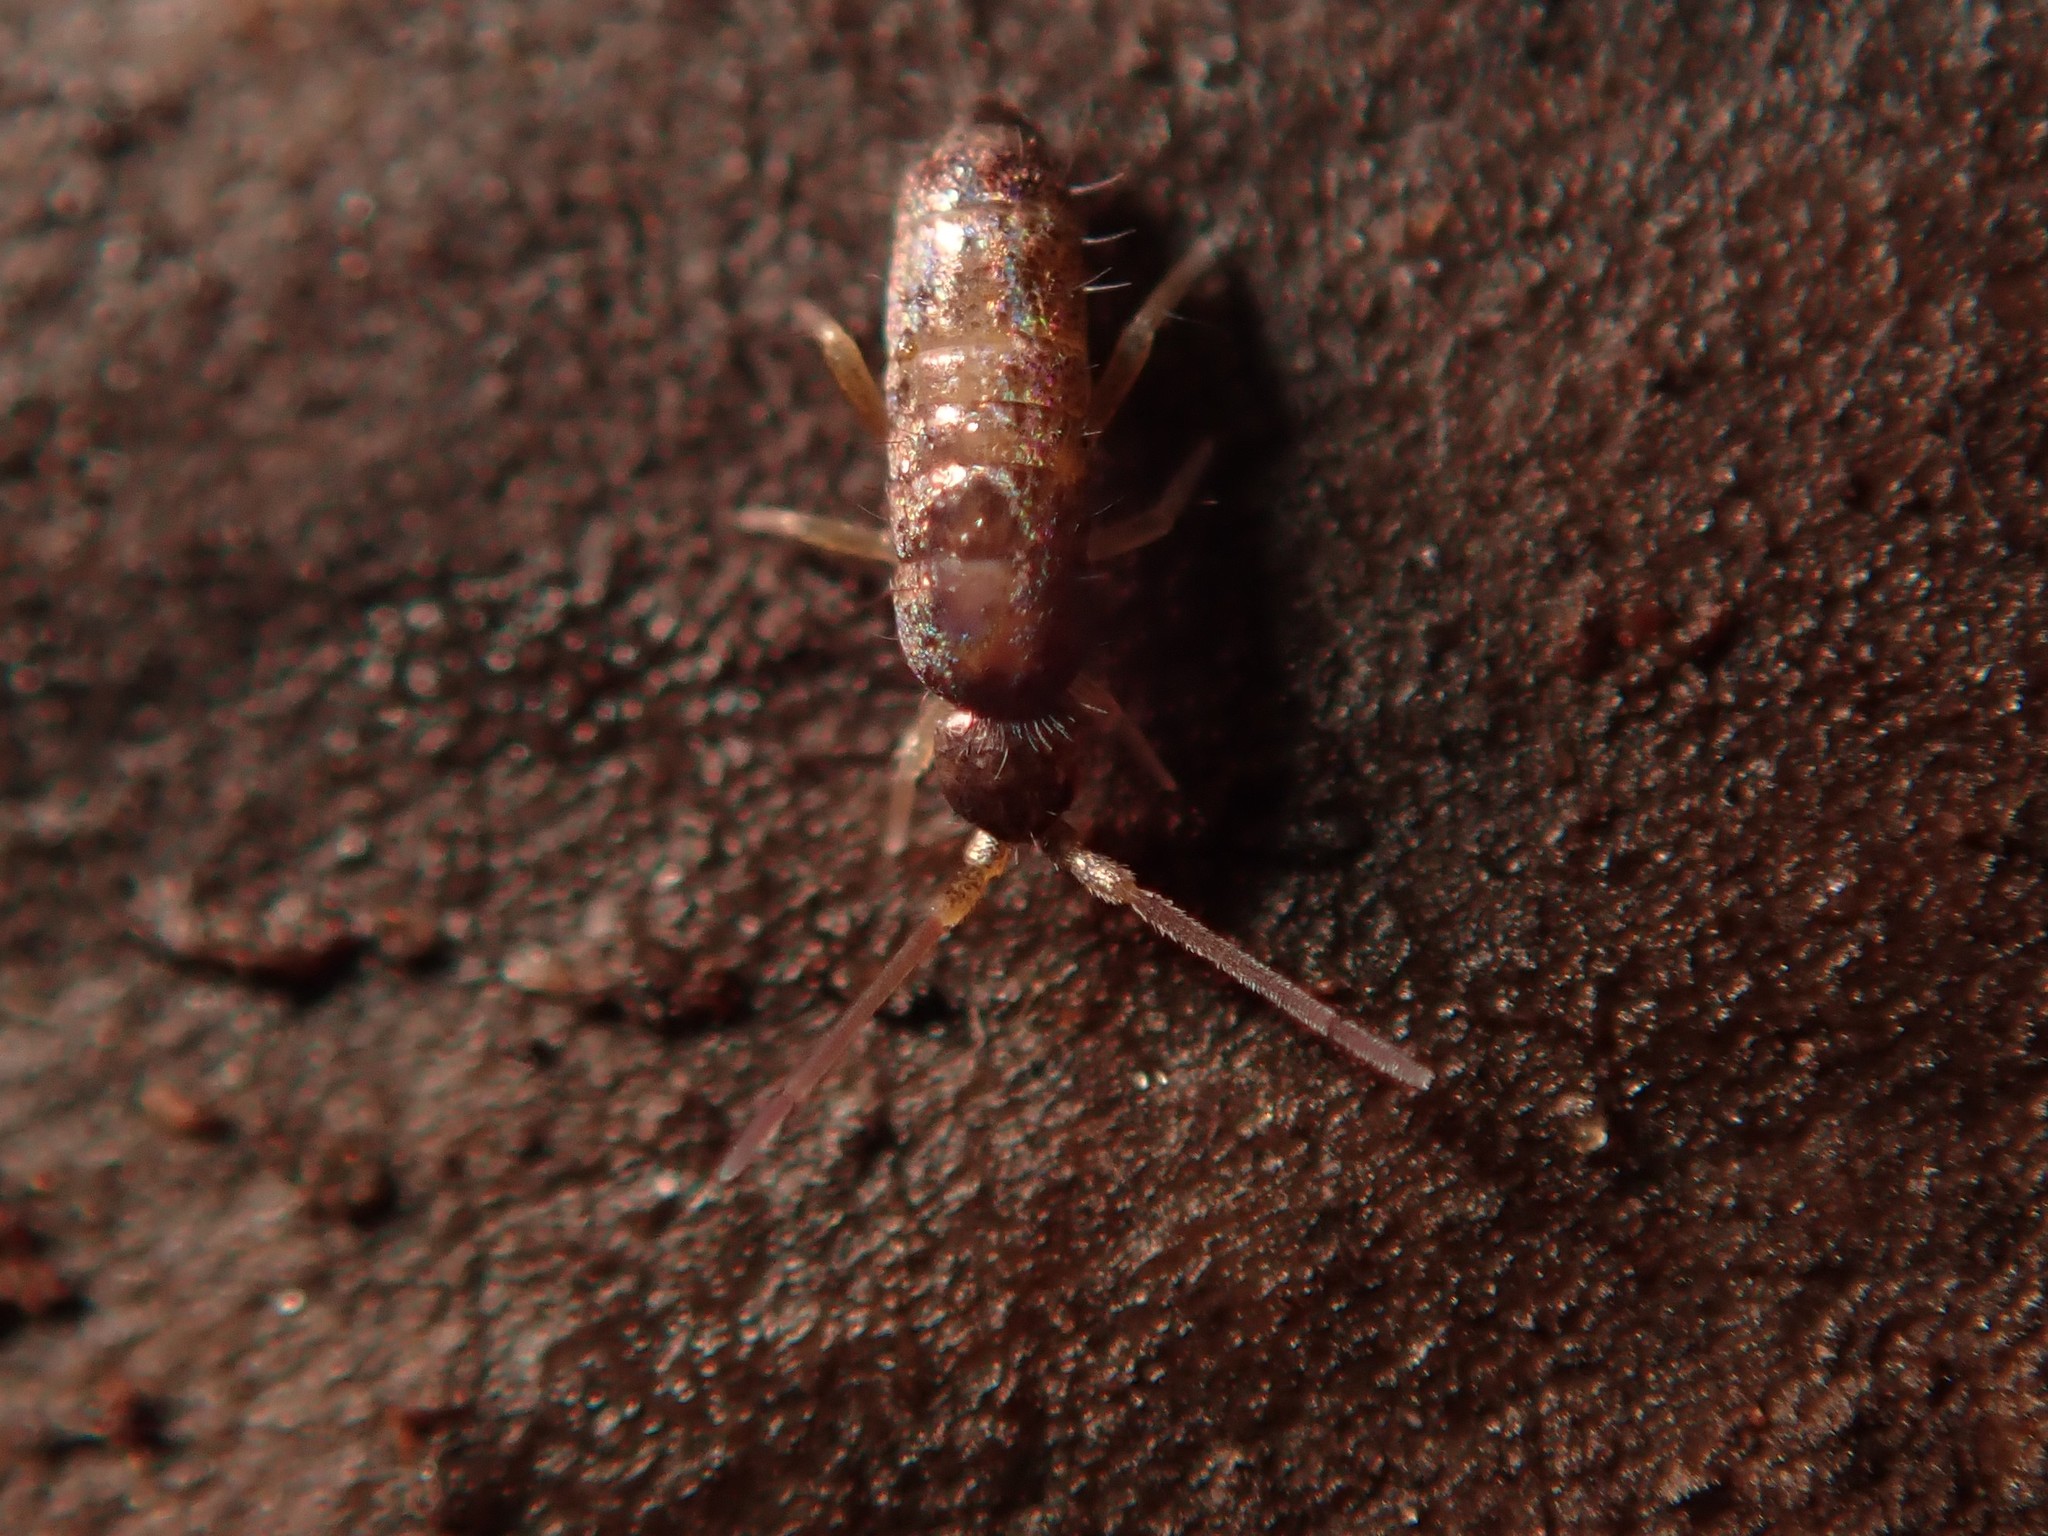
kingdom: Animalia
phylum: Arthropoda
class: Collembola
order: Entomobryomorpha
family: Tomoceridae
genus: Tomocerus
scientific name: Tomocerus minor
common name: Springtail
